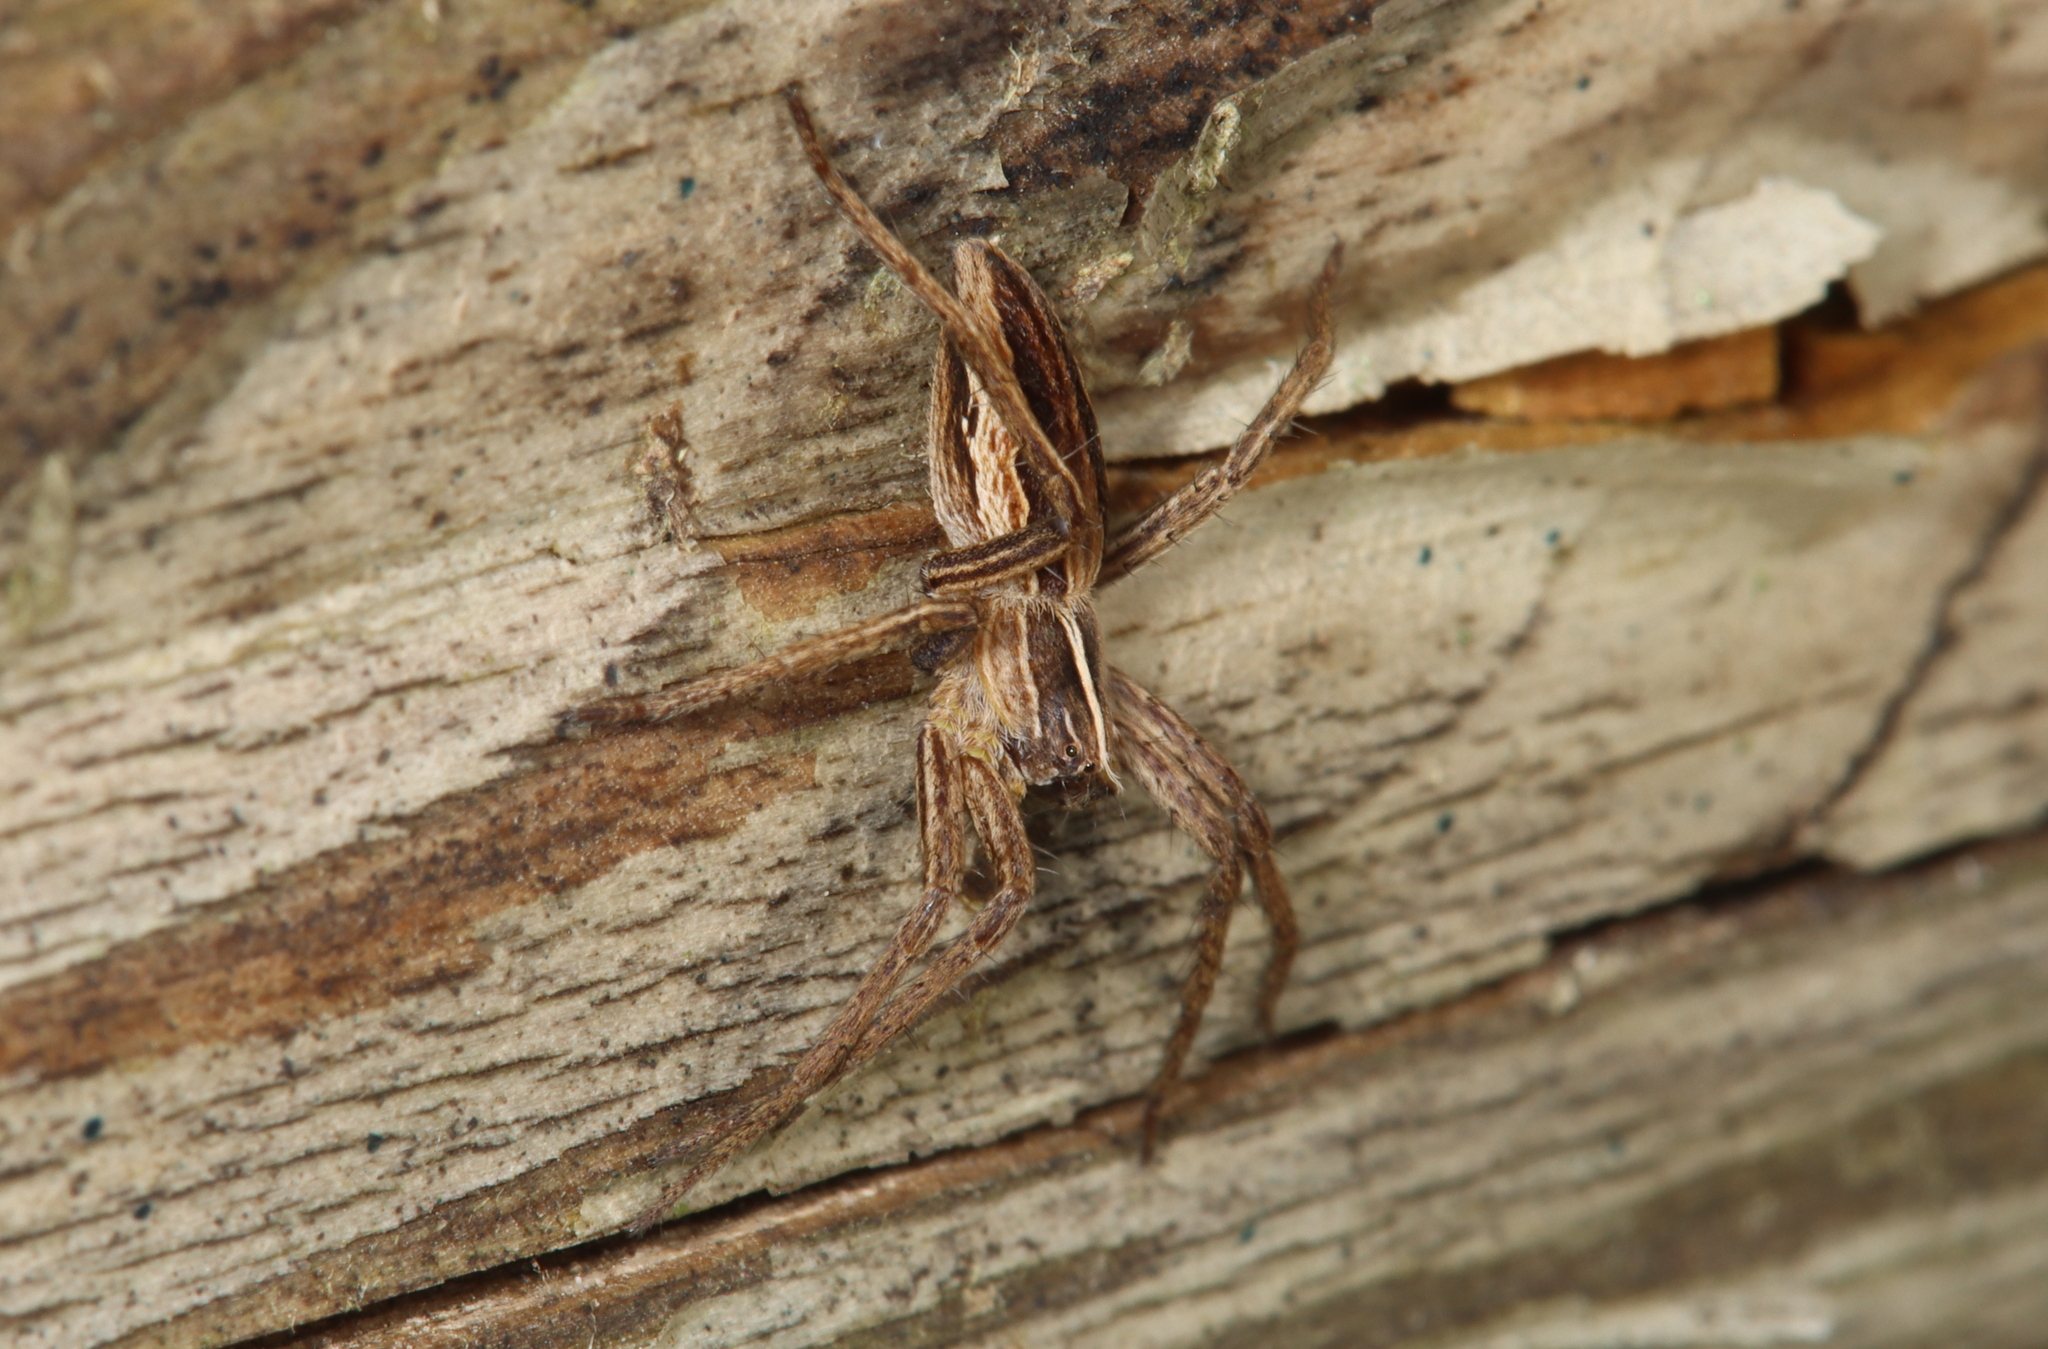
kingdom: Animalia
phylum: Arthropoda
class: Arachnida
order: Araneae
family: Pisauridae
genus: Pisaura
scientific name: Pisaura mirabilis
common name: Tent spider
